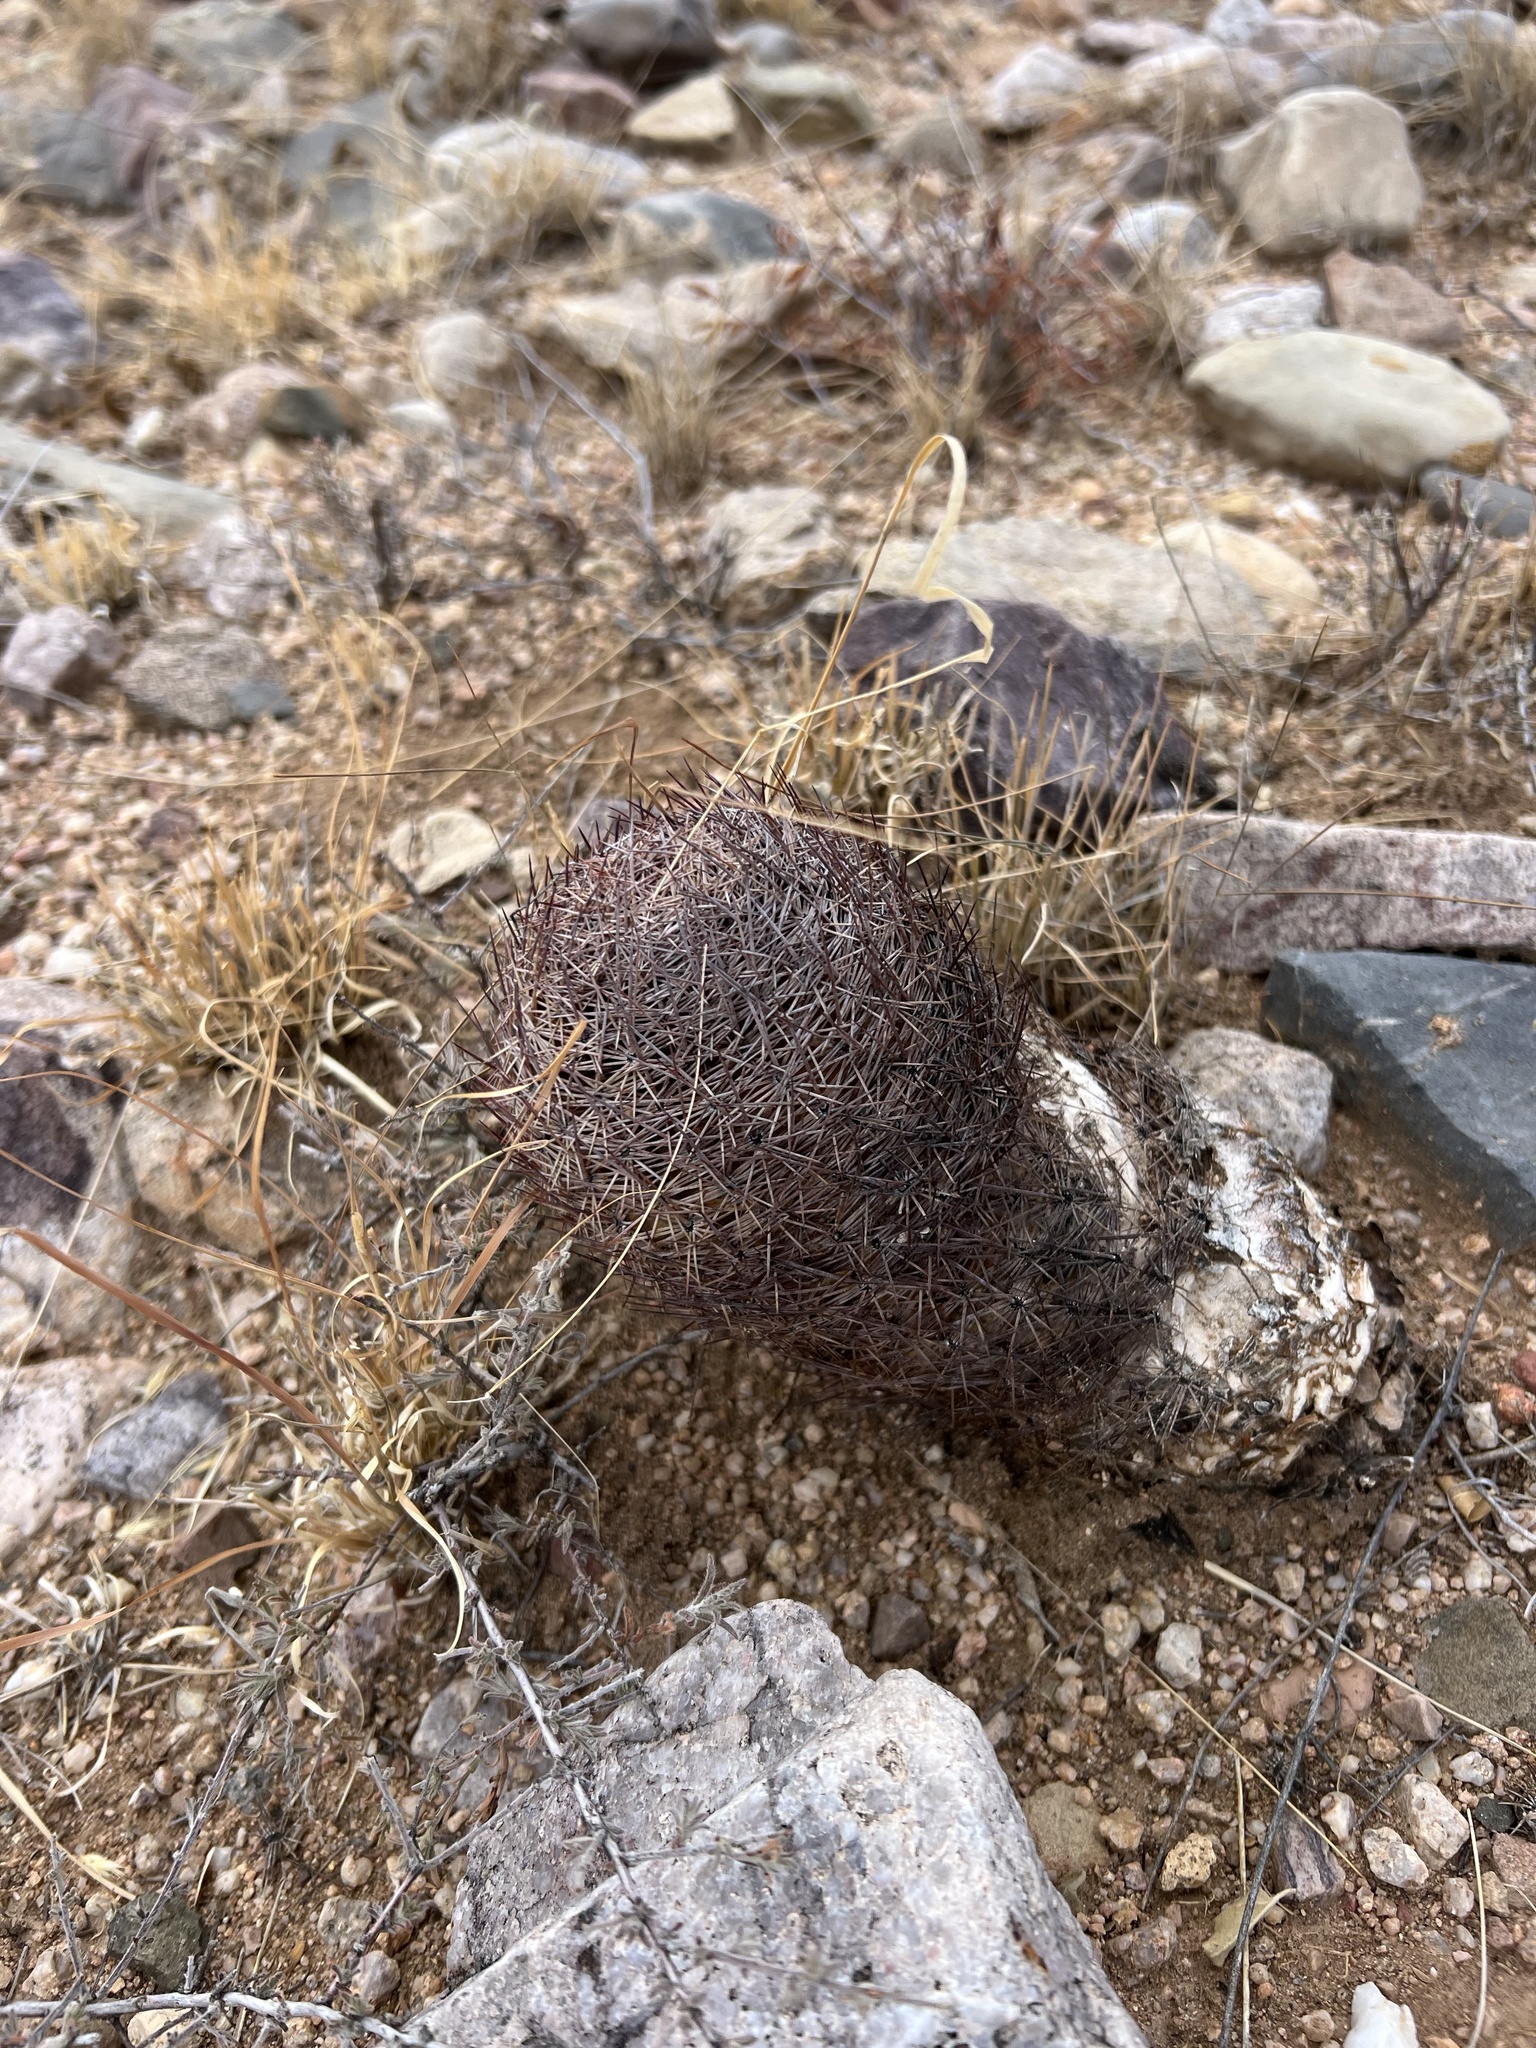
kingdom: Plantae
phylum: Tracheophyta
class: Magnoliopsida
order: Caryophyllales
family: Cactaceae
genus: Sclerocactus
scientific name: Sclerocactus johnsonii
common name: Eight-spine fishhook cactus
